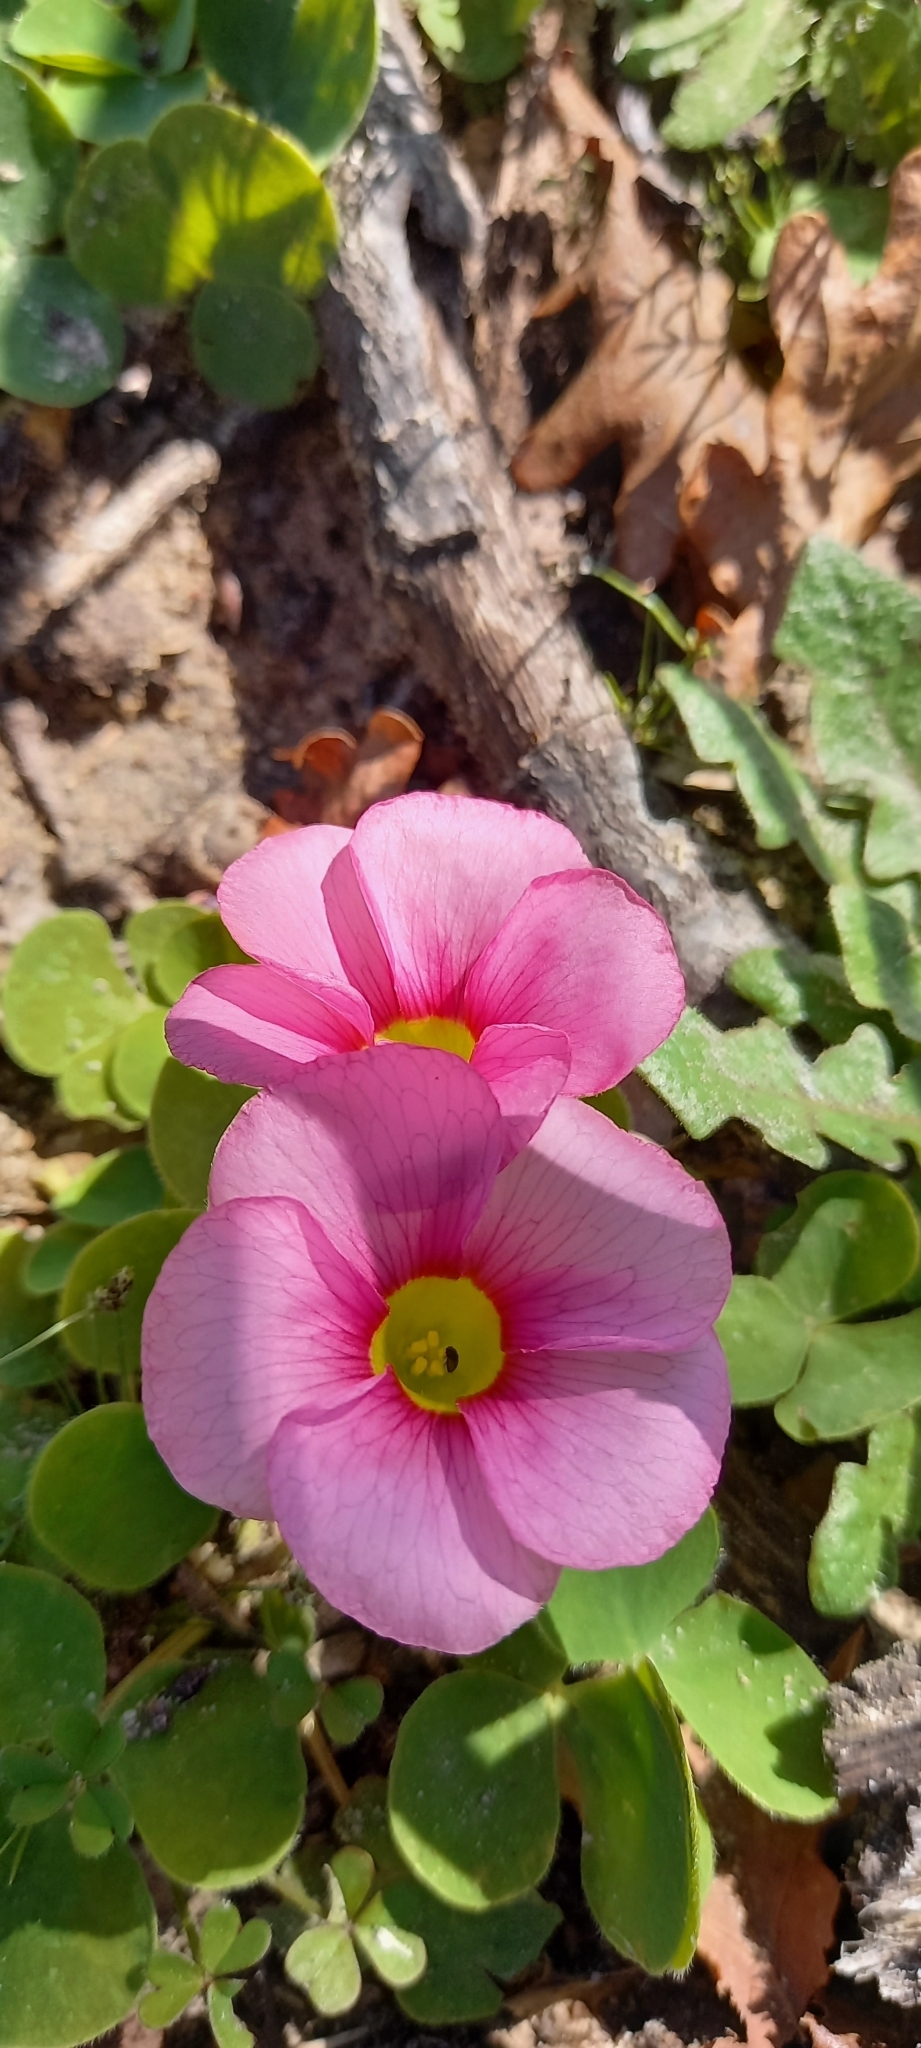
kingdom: Plantae
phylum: Tracheophyta
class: Magnoliopsida
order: Oxalidales
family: Oxalidaceae
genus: Oxalis
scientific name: Oxalis purpurea
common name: Purple woodsorrel
